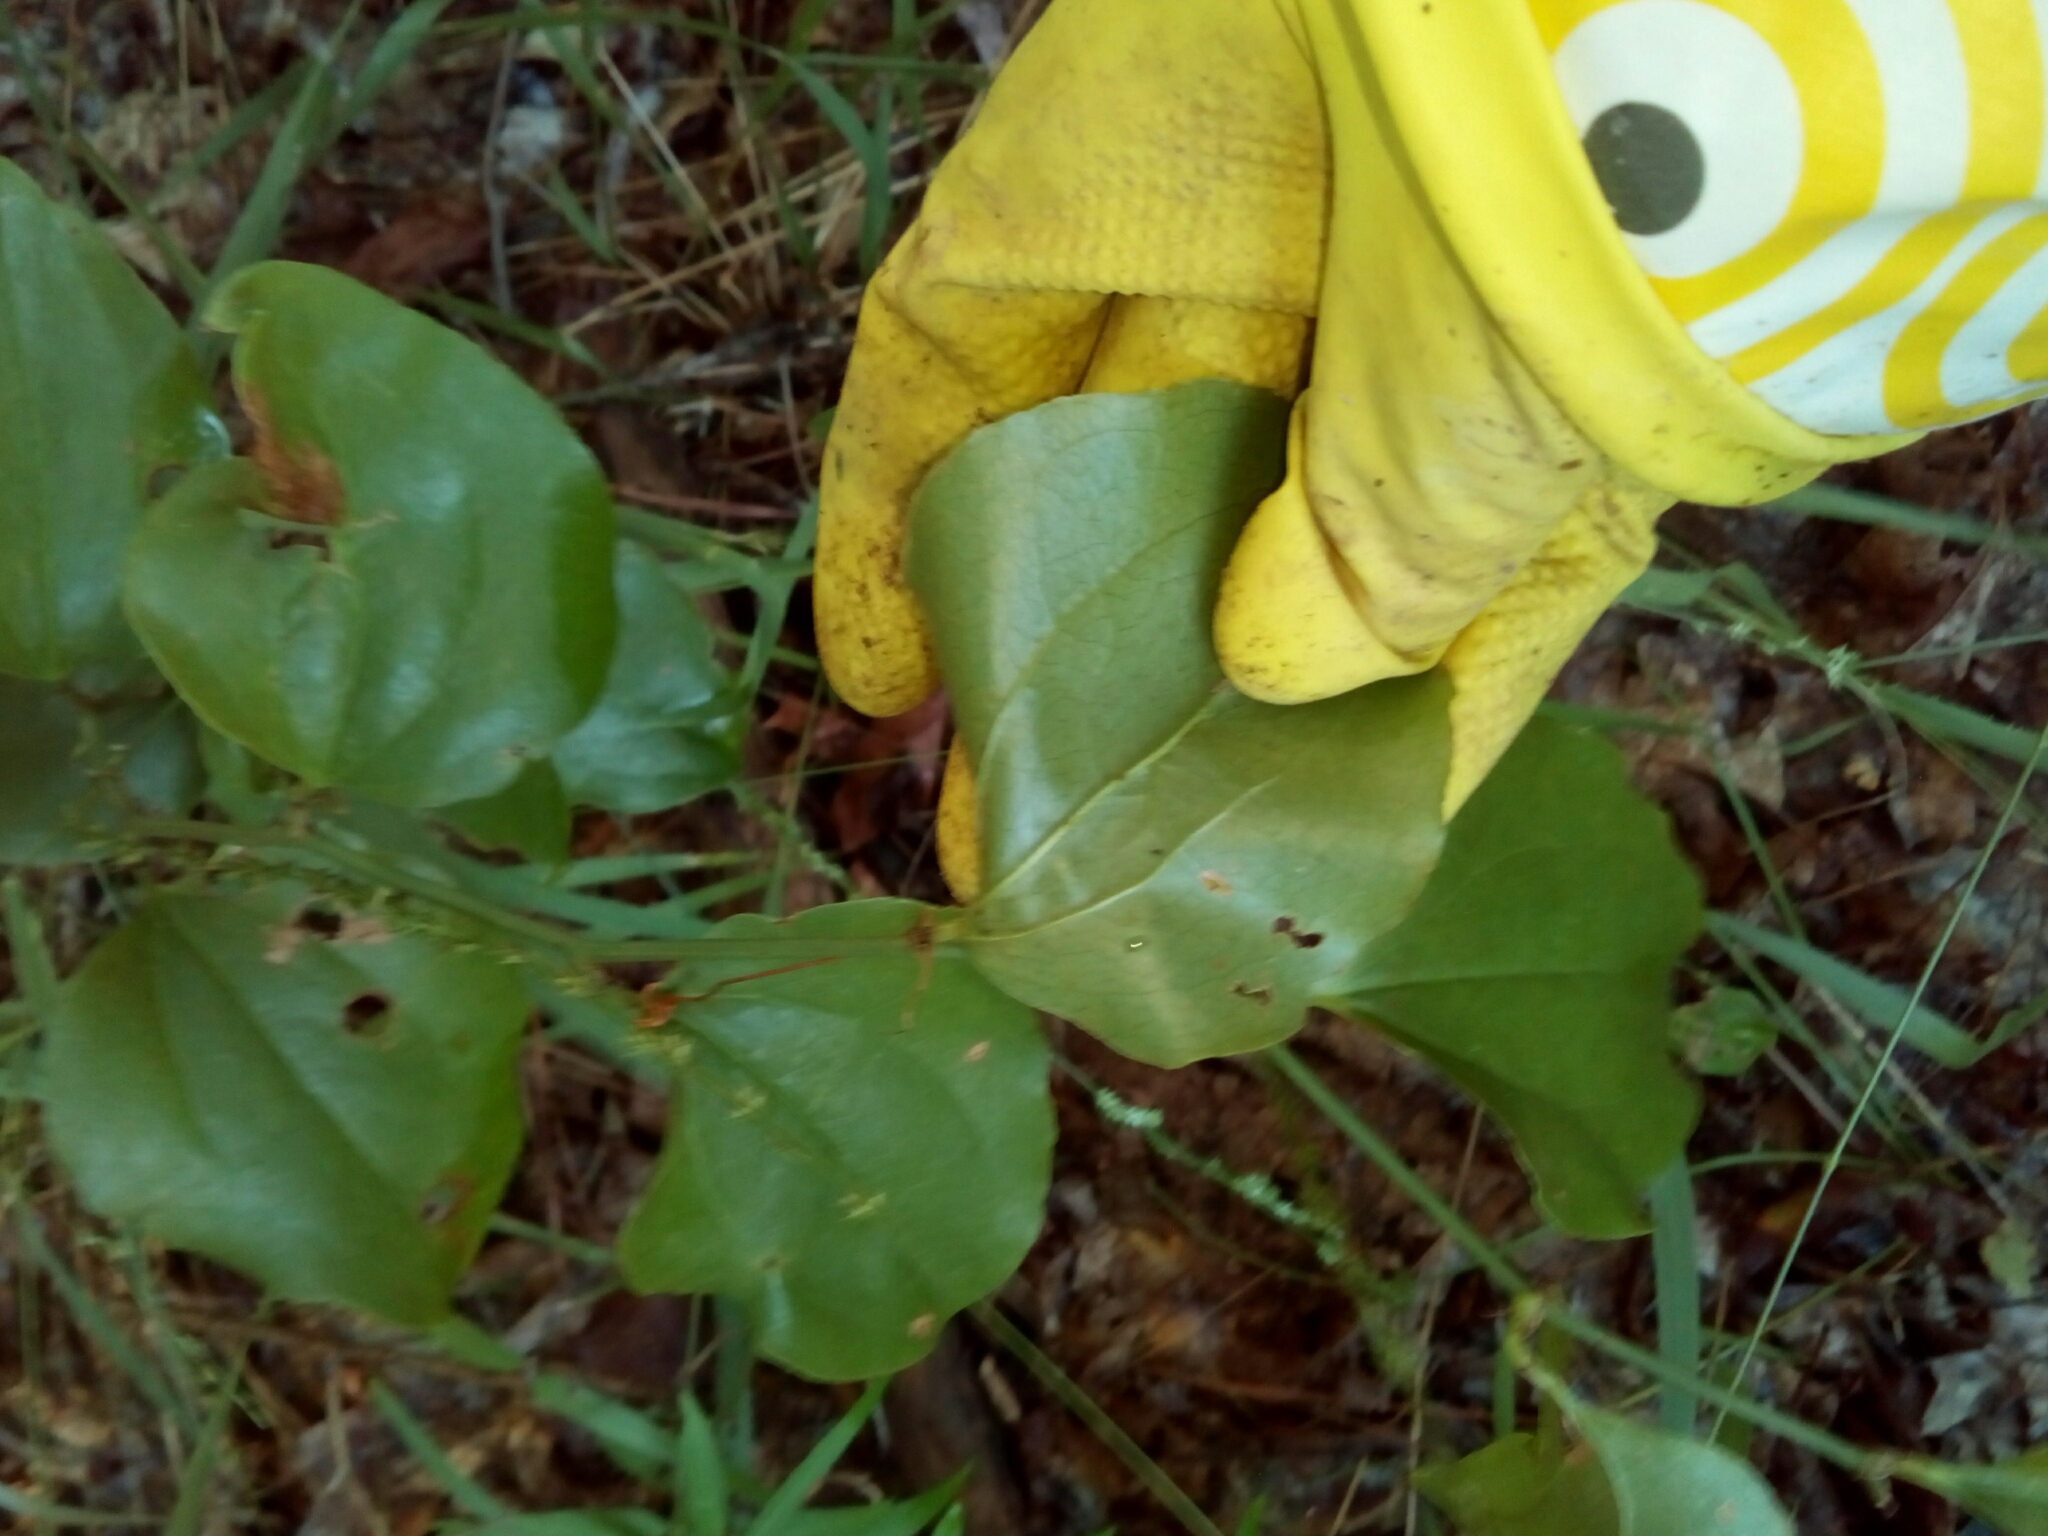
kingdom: Plantae
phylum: Tracheophyta
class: Liliopsida
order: Liliales
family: Smilacaceae
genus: Smilax
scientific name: Smilax rotundifolia
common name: Bullbriar
